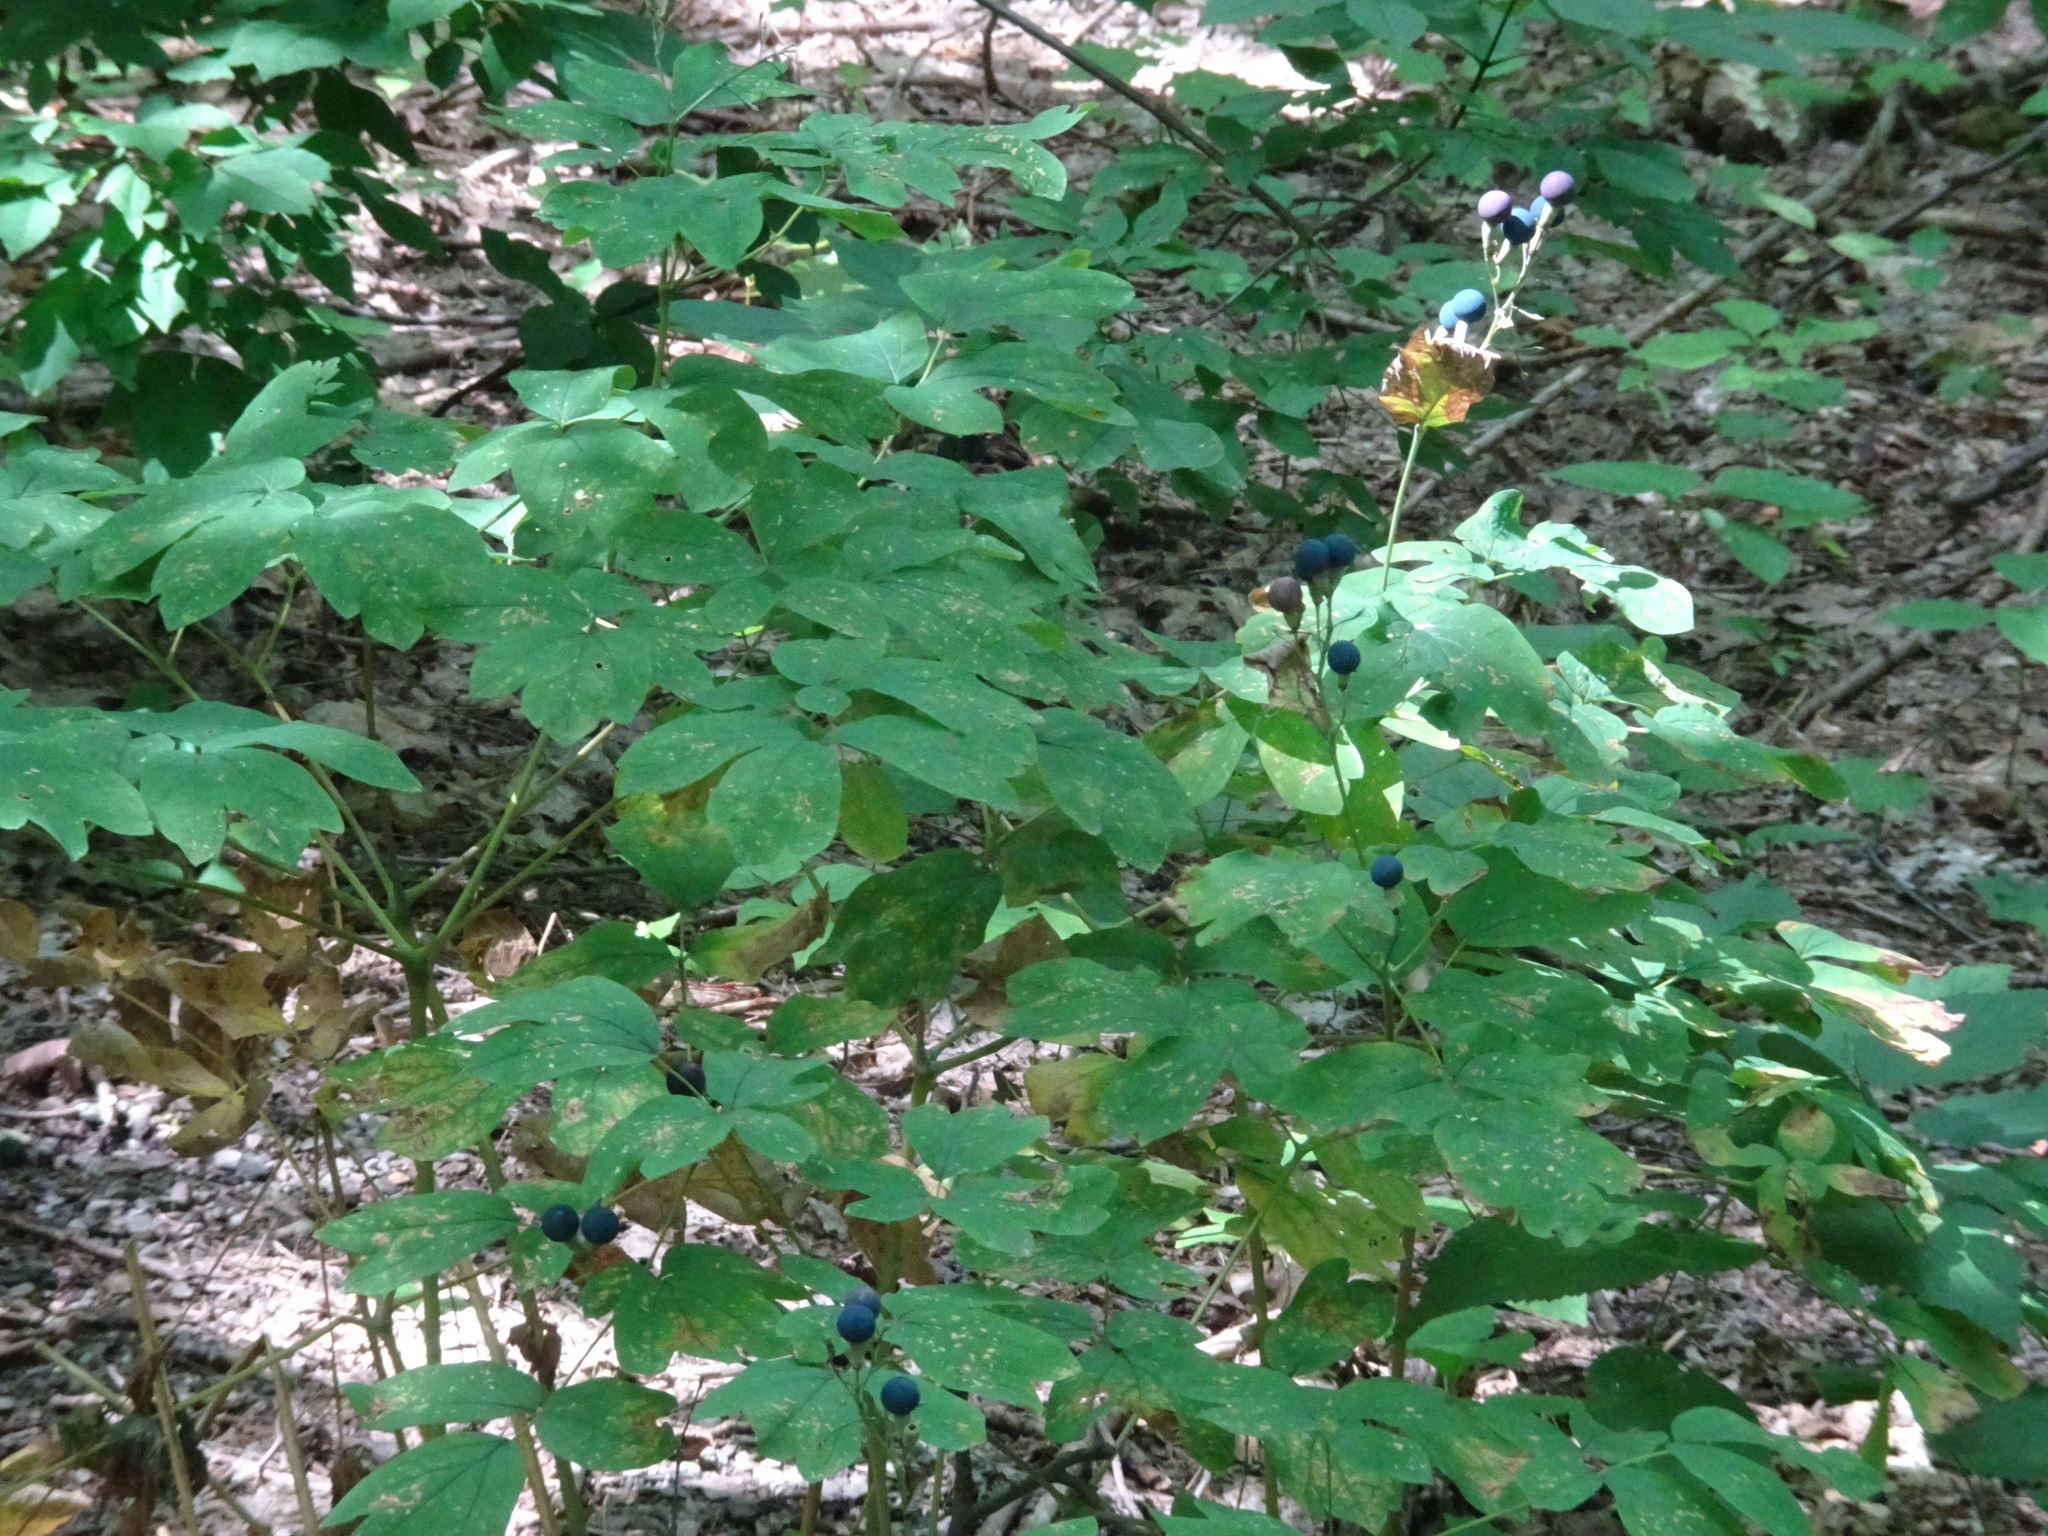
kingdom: Plantae
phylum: Tracheophyta
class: Magnoliopsida
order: Ranunculales
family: Berberidaceae
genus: Caulophyllum
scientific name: Caulophyllum thalictroides
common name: Blue cohosh
